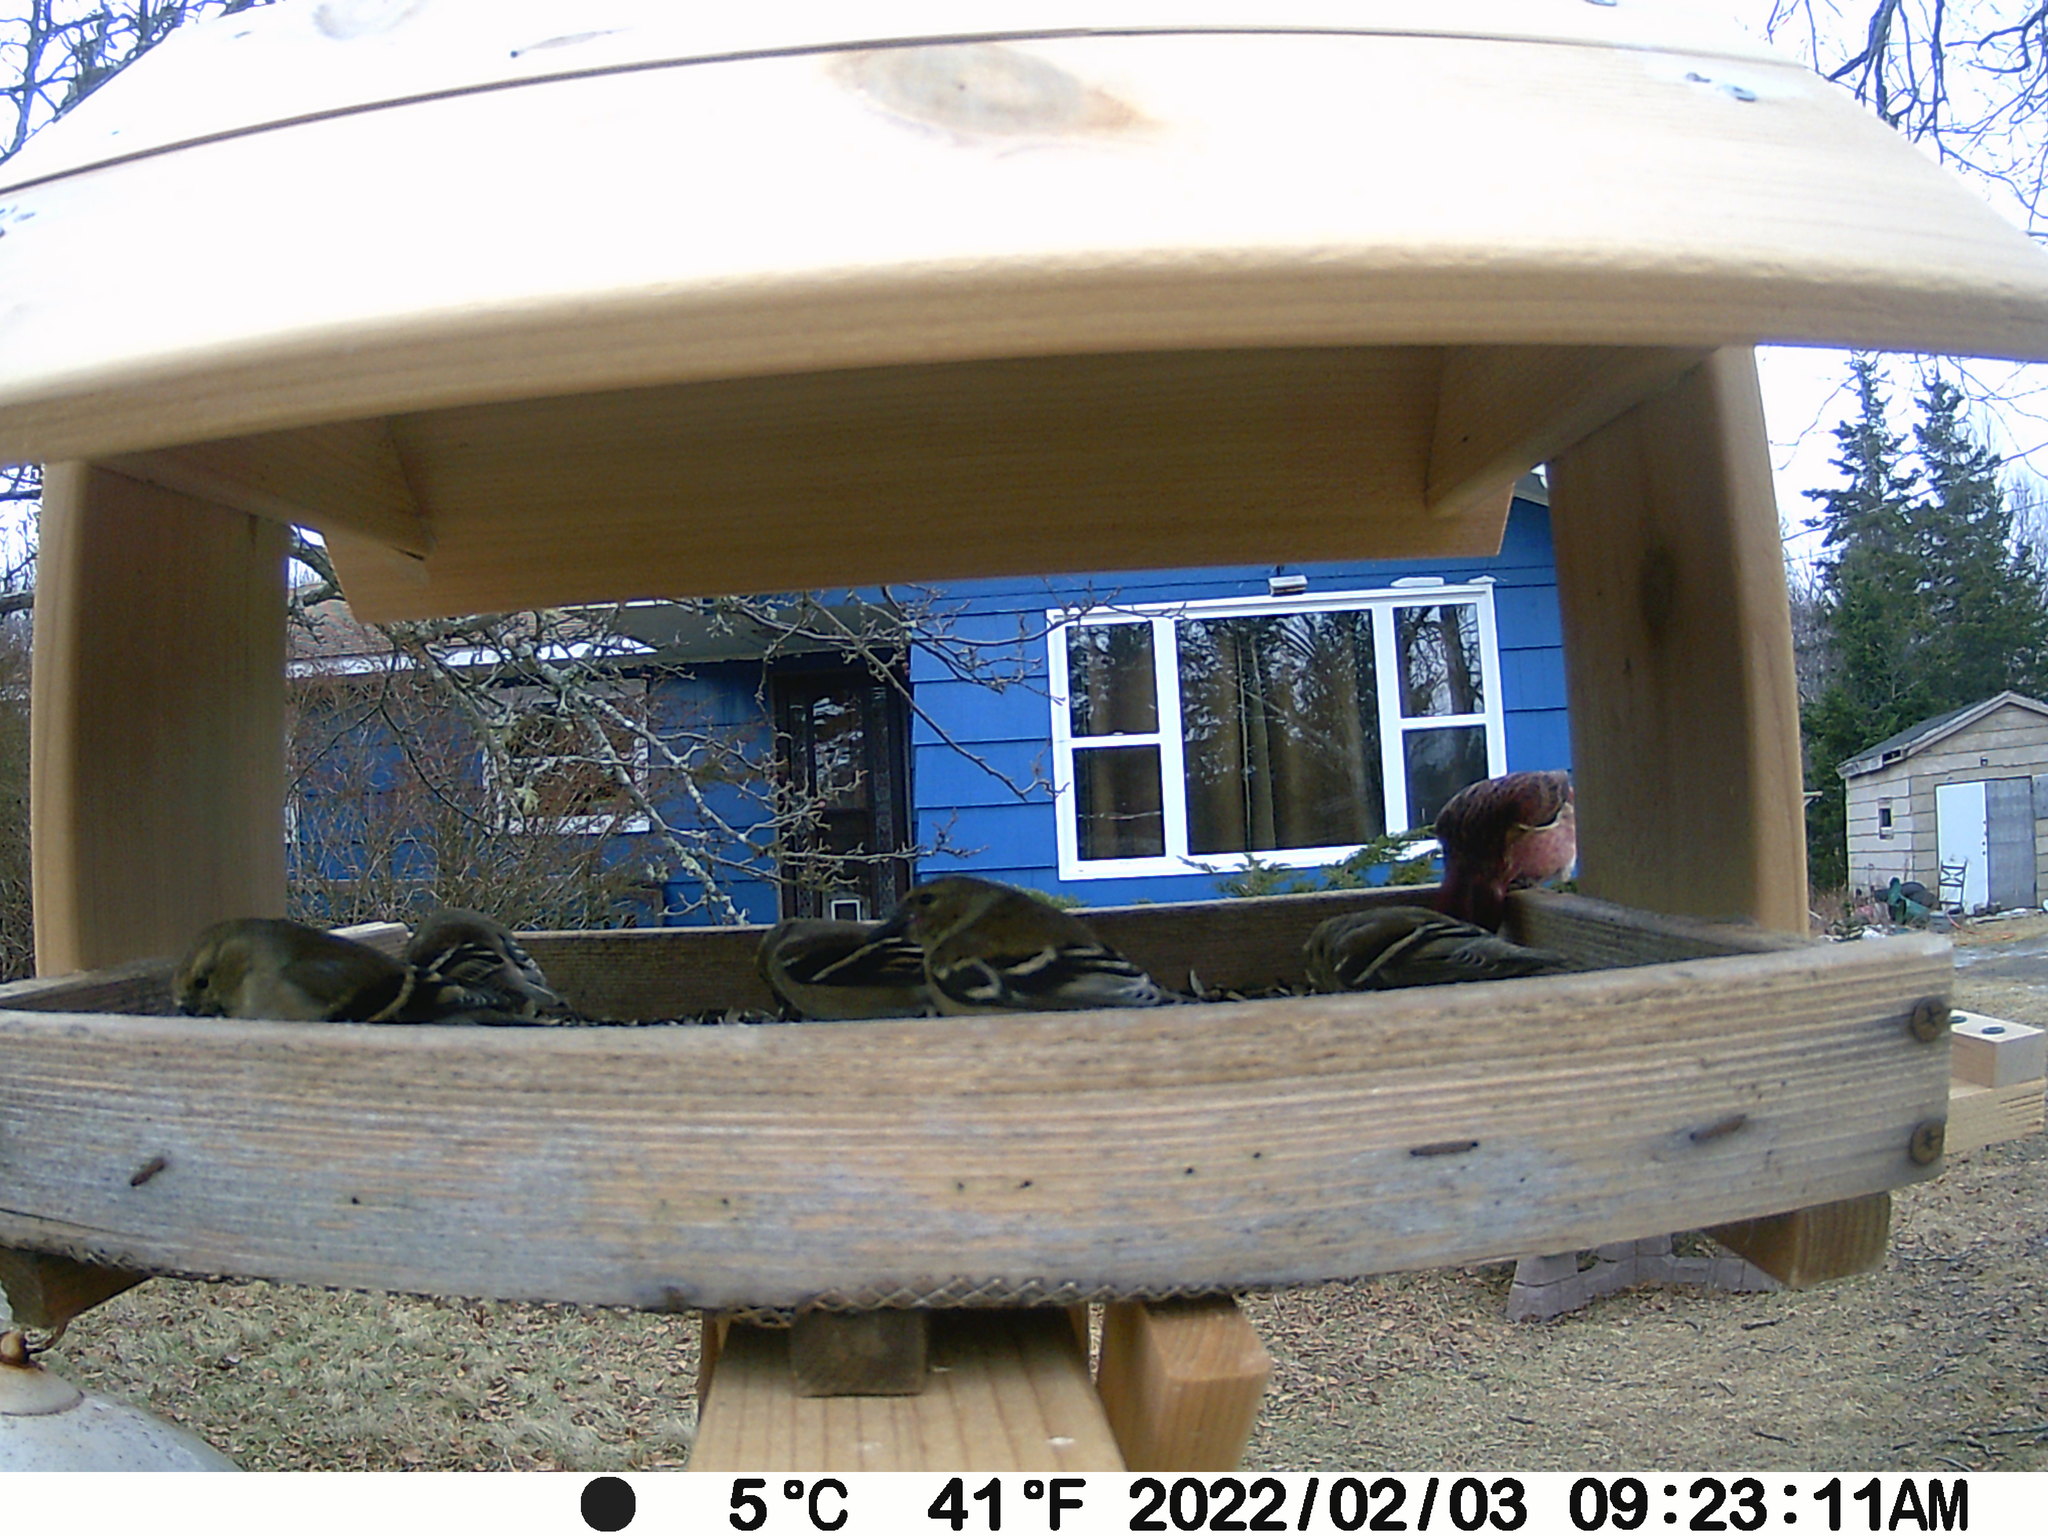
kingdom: Animalia
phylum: Chordata
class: Aves
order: Passeriformes
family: Fringillidae
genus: Haemorhous
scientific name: Haemorhous purpureus
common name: Purple finch
